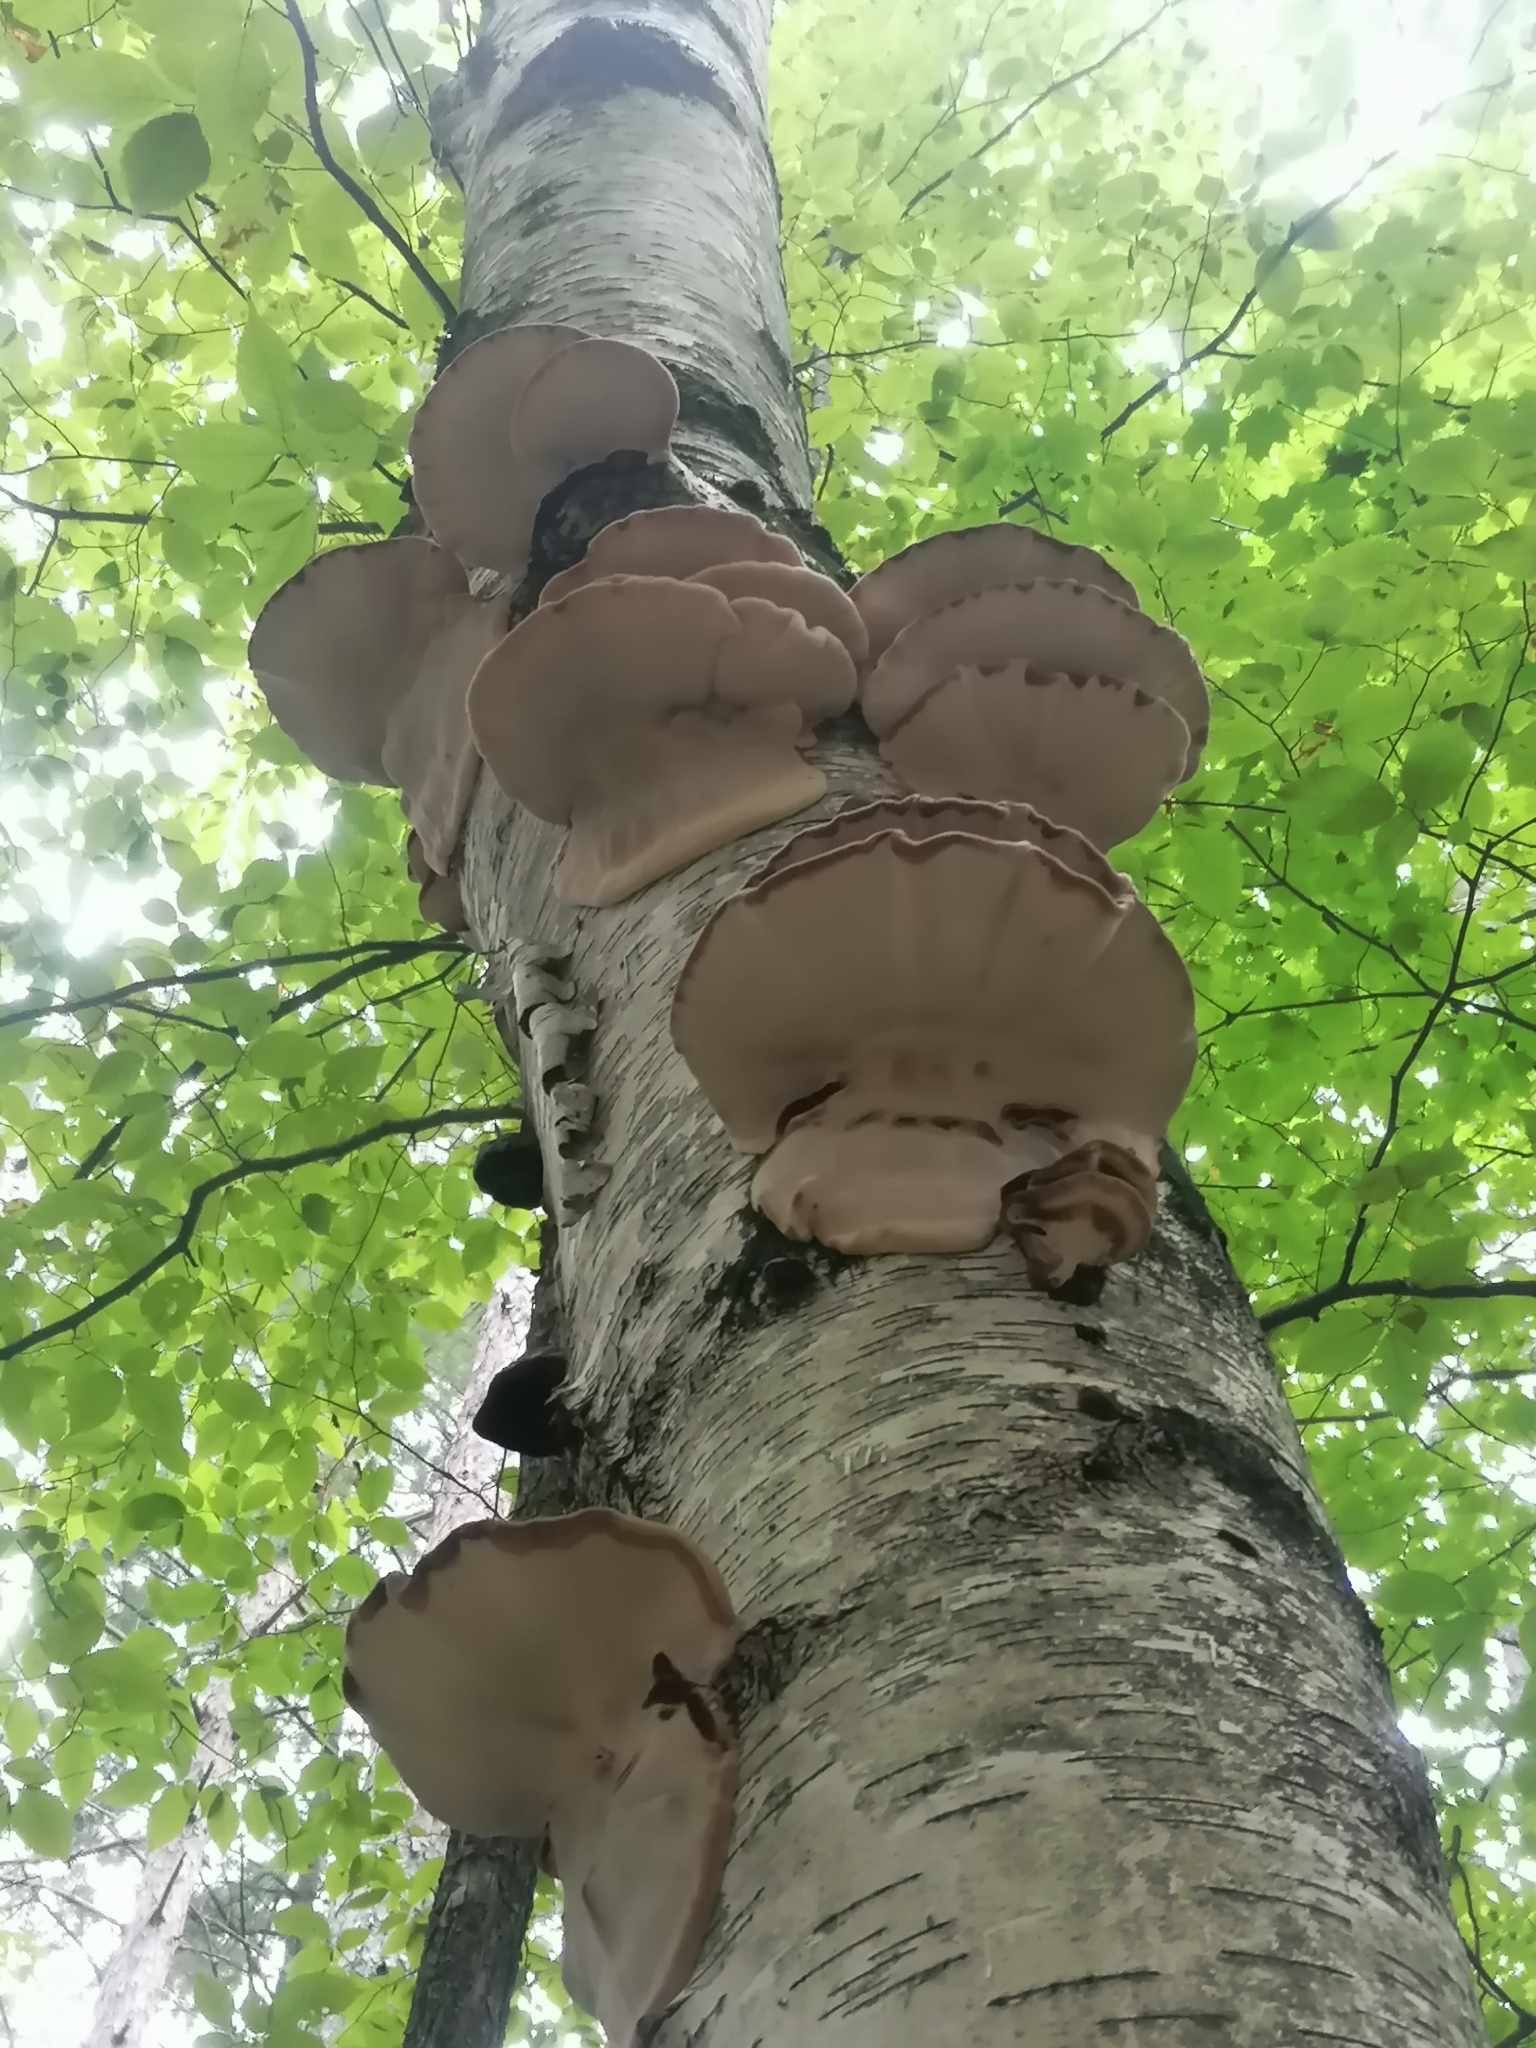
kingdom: Fungi
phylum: Basidiomycota
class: Agaricomycetes
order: Polyporales
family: Ischnodermataceae
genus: Ischnoderma
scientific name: Ischnoderma resinosum
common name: Resinous polypore
